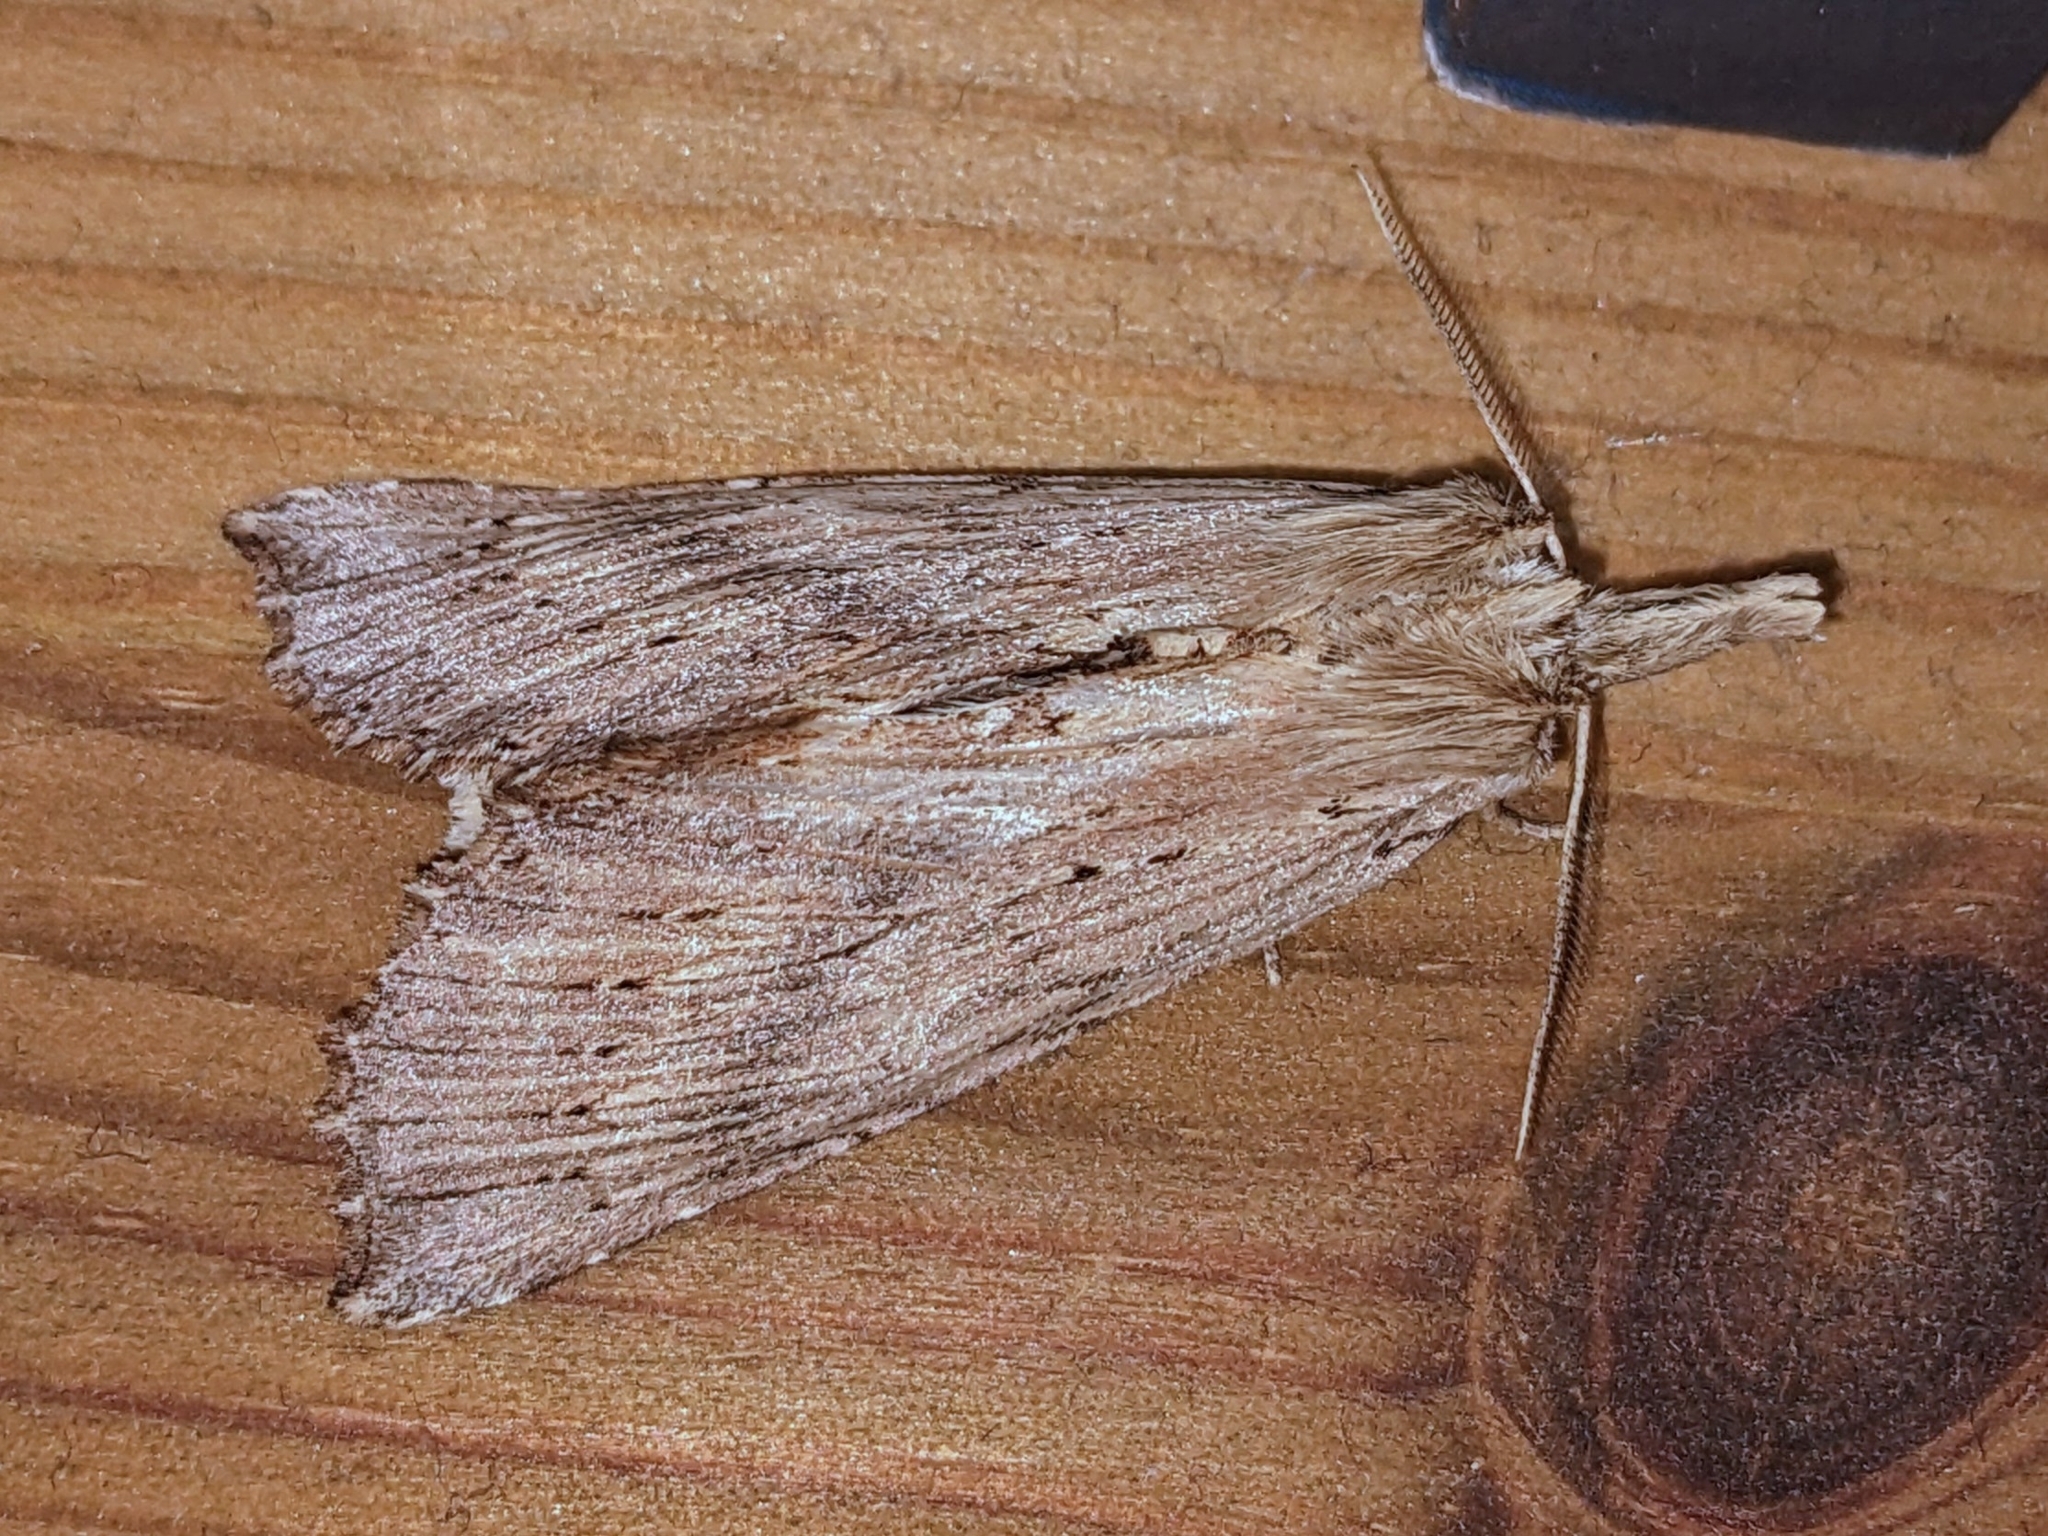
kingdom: Animalia
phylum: Arthropoda
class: Insecta
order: Lepidoptera
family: Notodontidae
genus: Pterostoma
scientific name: Pterostoma palpina
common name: Pale prominent
